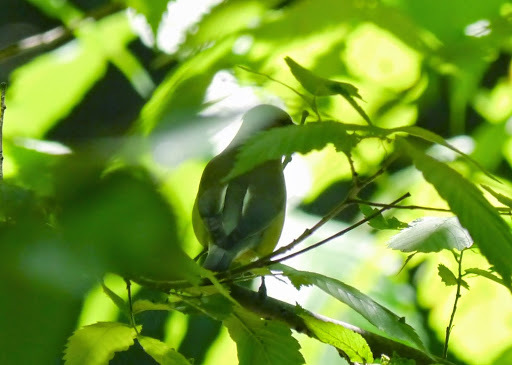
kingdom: Animalia
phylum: Chordata
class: Aves
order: Passeriformes
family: Bombycillidae
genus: Bombycilla
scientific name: Bombycilla cedrorum
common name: Cedar waxwing
